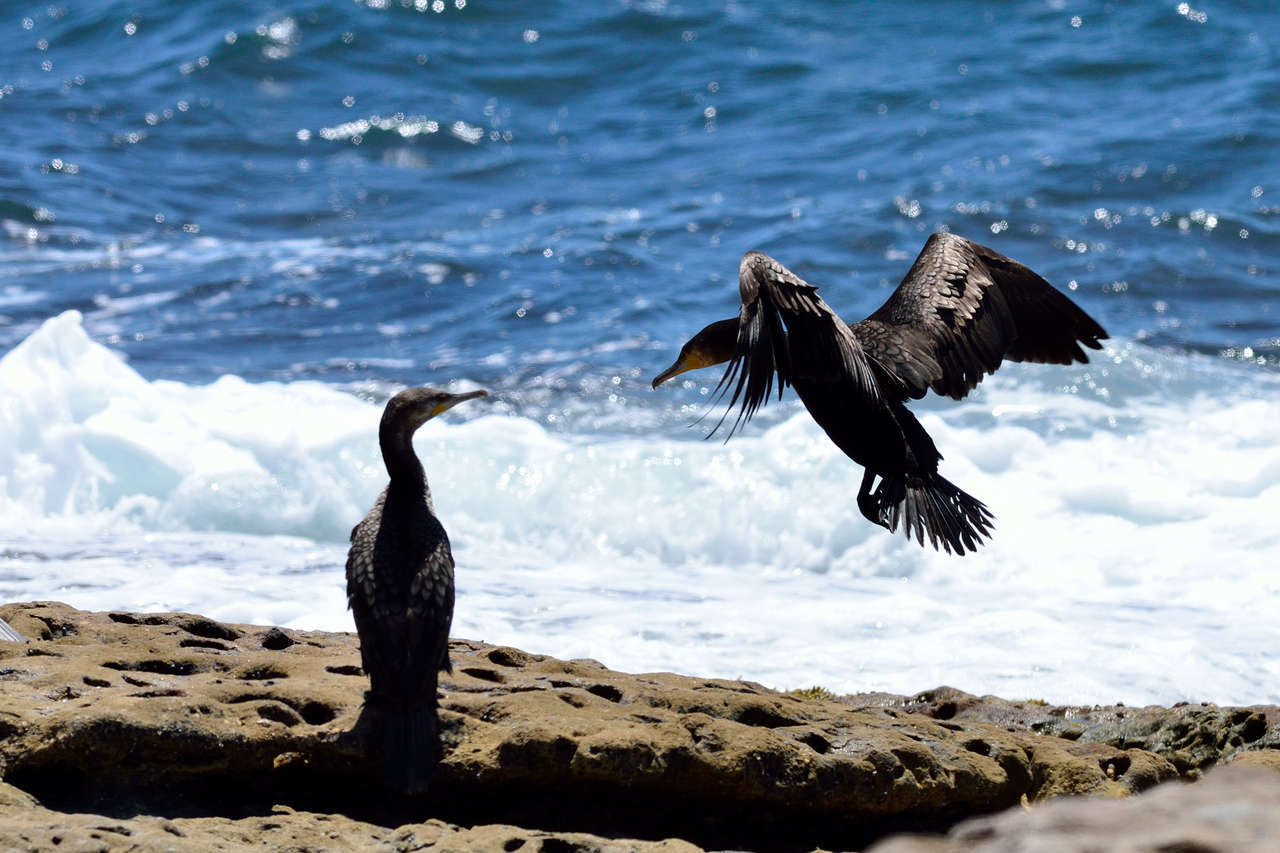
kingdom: Animalia
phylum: Chordata
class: Aves
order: Suliformes
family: Phalacrocoracidae
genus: Phalacrocorax
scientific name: Phalacrocorax carbo
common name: Great cormorant
